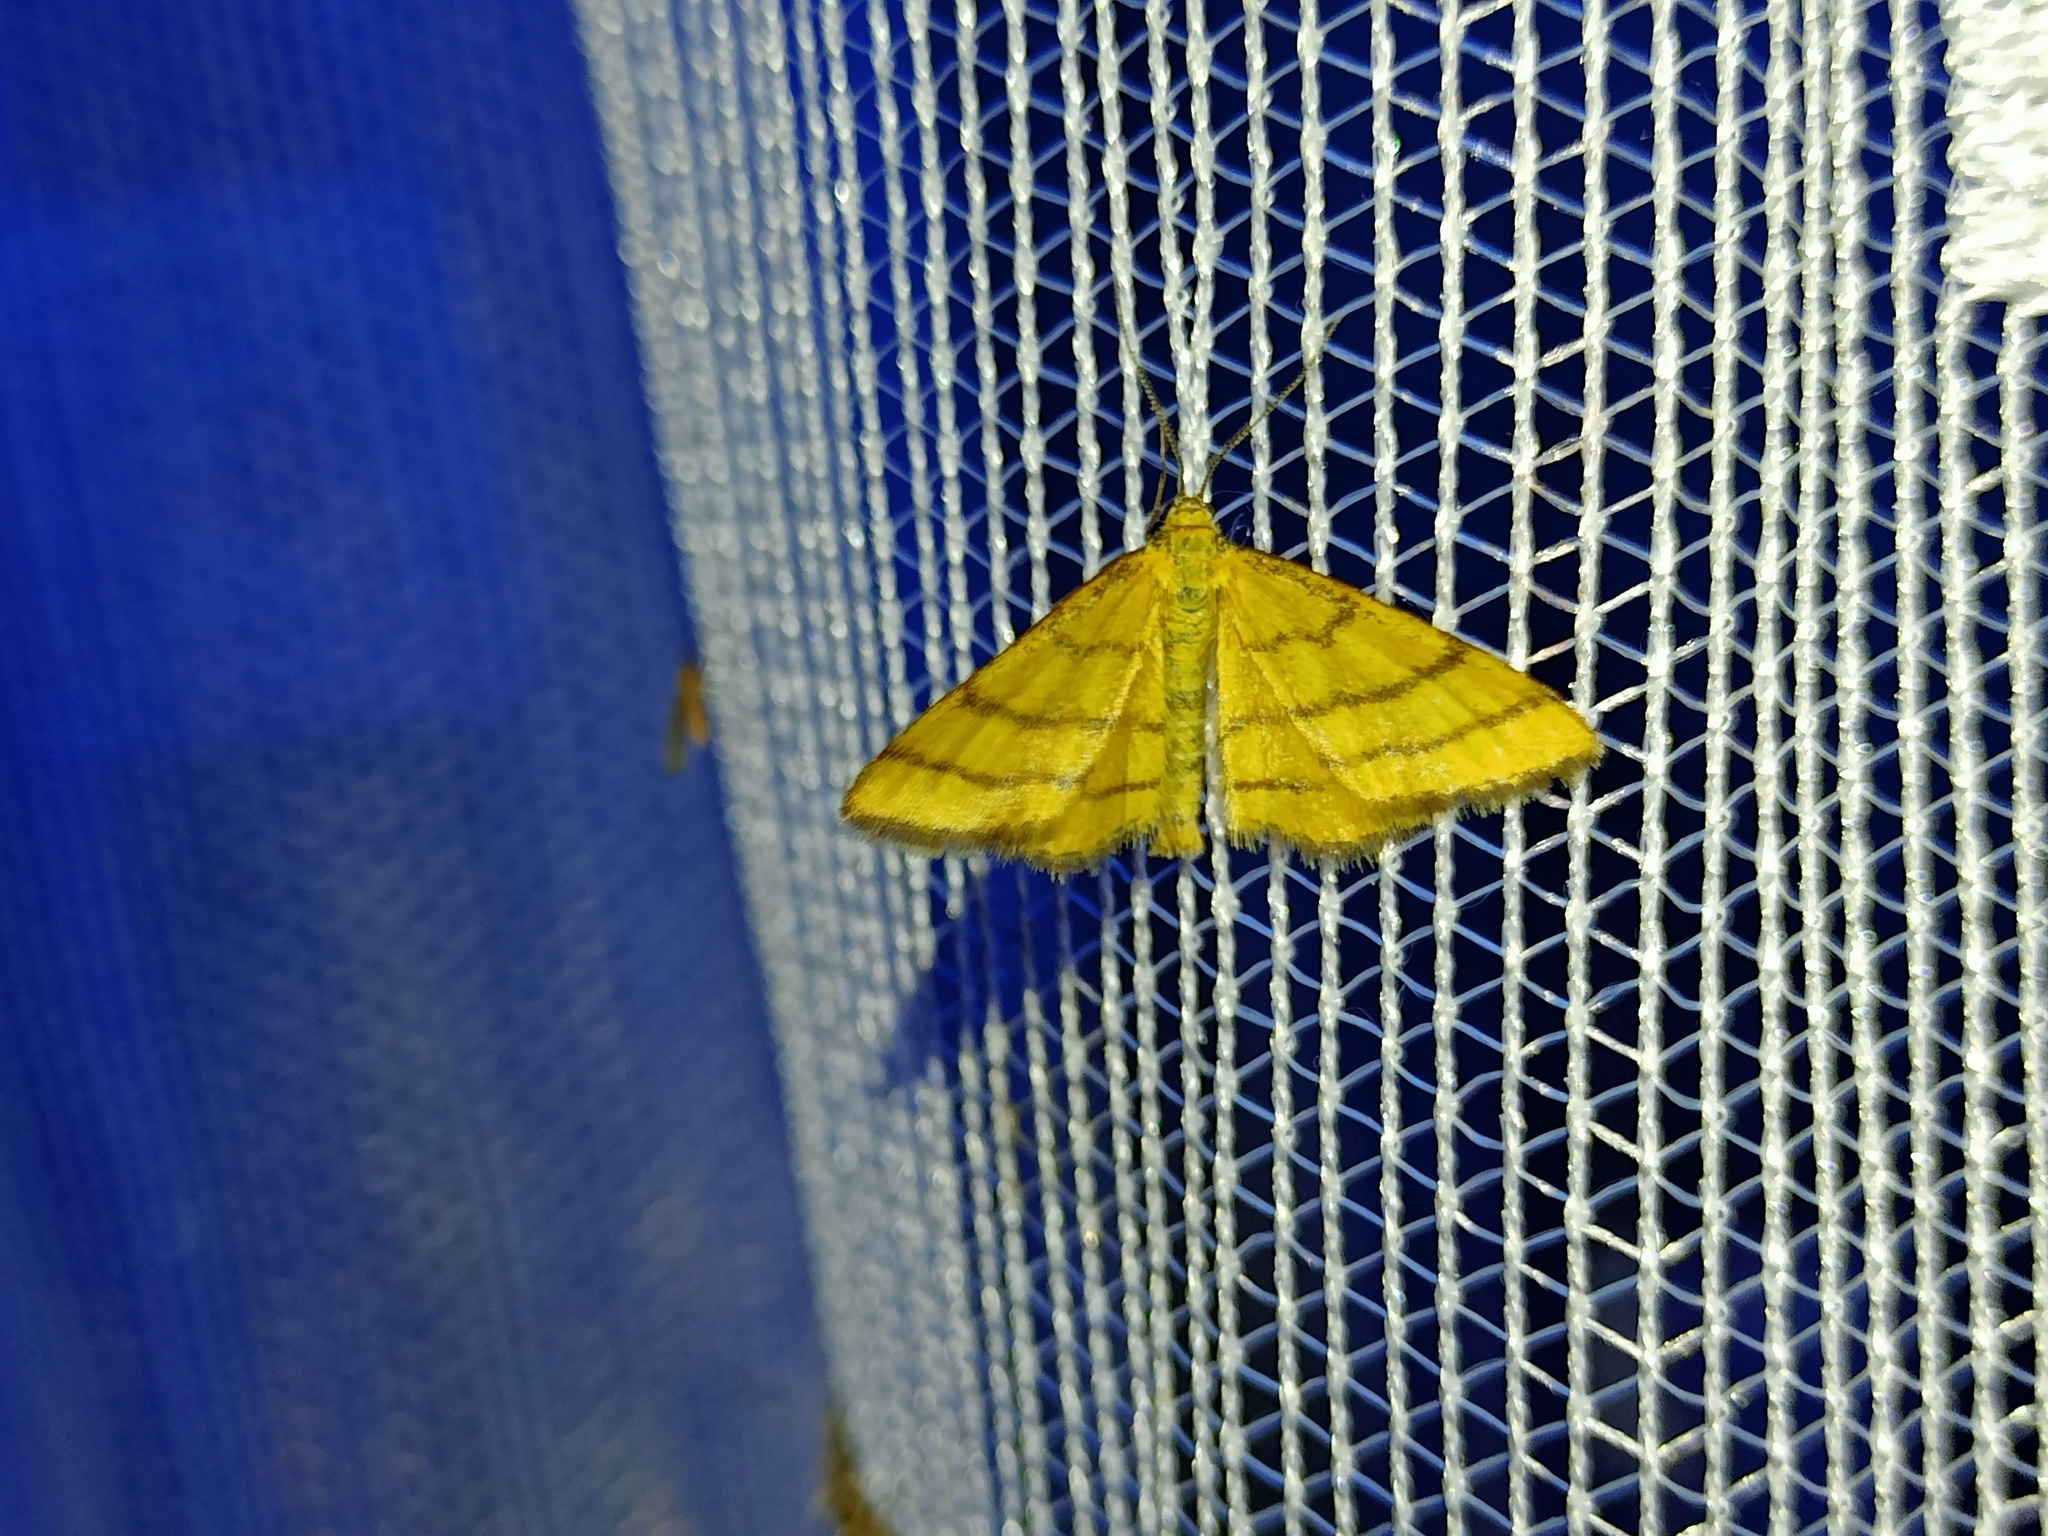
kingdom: Animalia
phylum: Arthropoda
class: Insecta
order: Lepidoptera
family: Geometridae
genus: Idaea
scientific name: Idaea aureolaria
